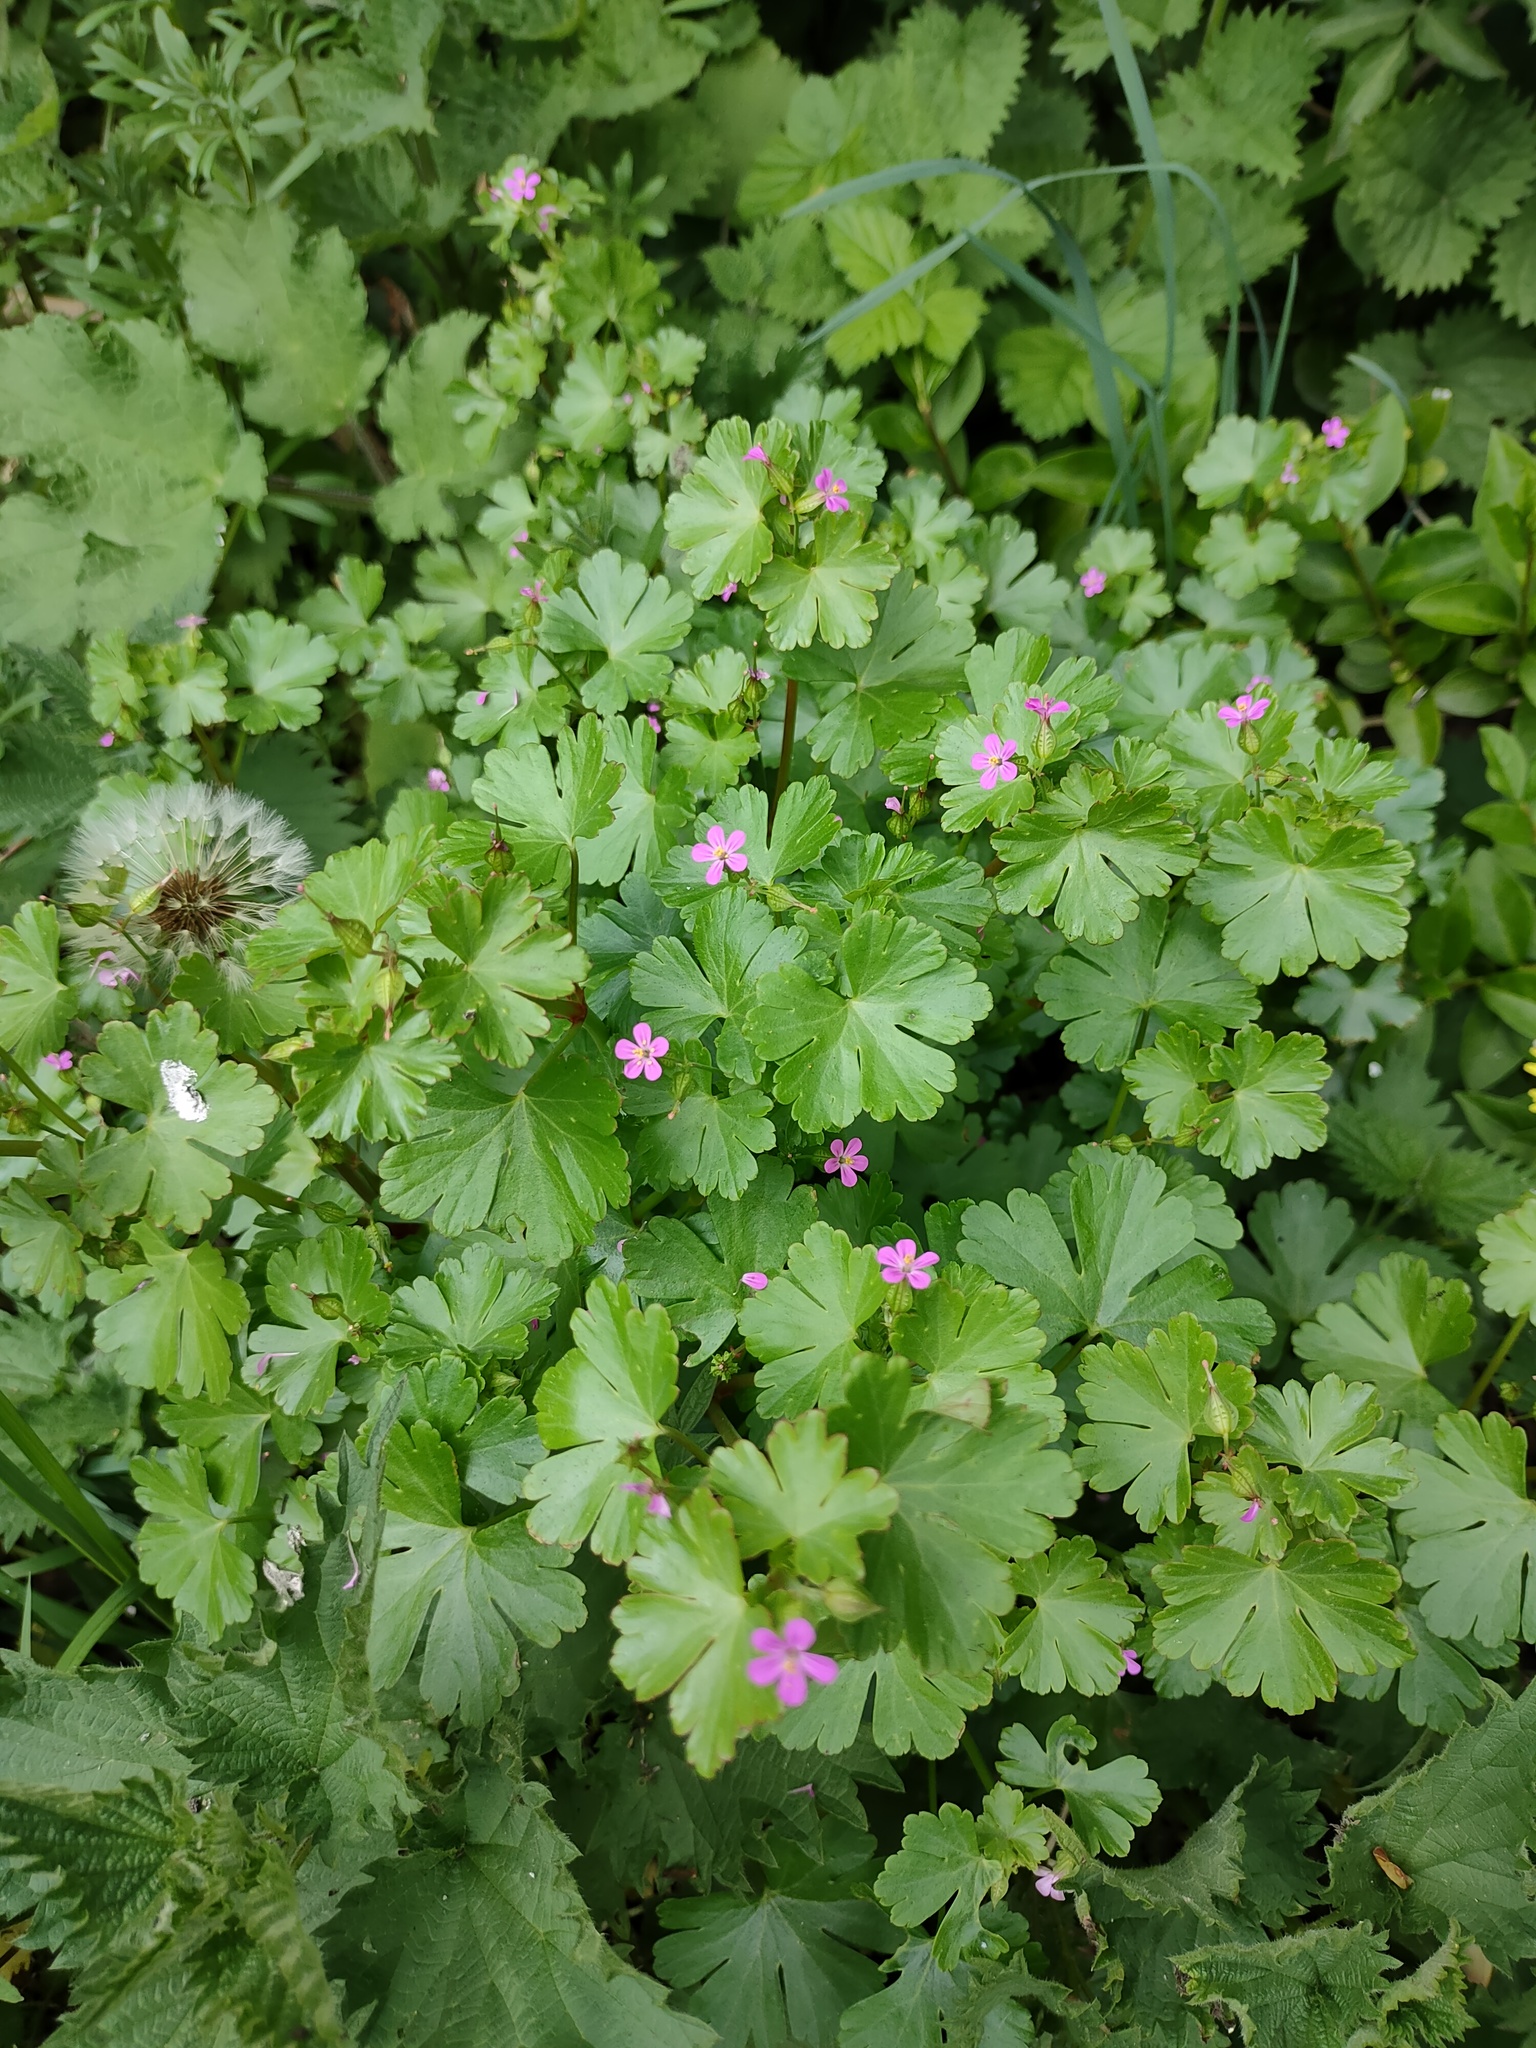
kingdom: Plantae
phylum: Tracheophyta
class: Magnoliopsida
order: Geraniales
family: Geraniaceae
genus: Geranium
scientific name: Geranium lucidum
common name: Shining crane's-bill
